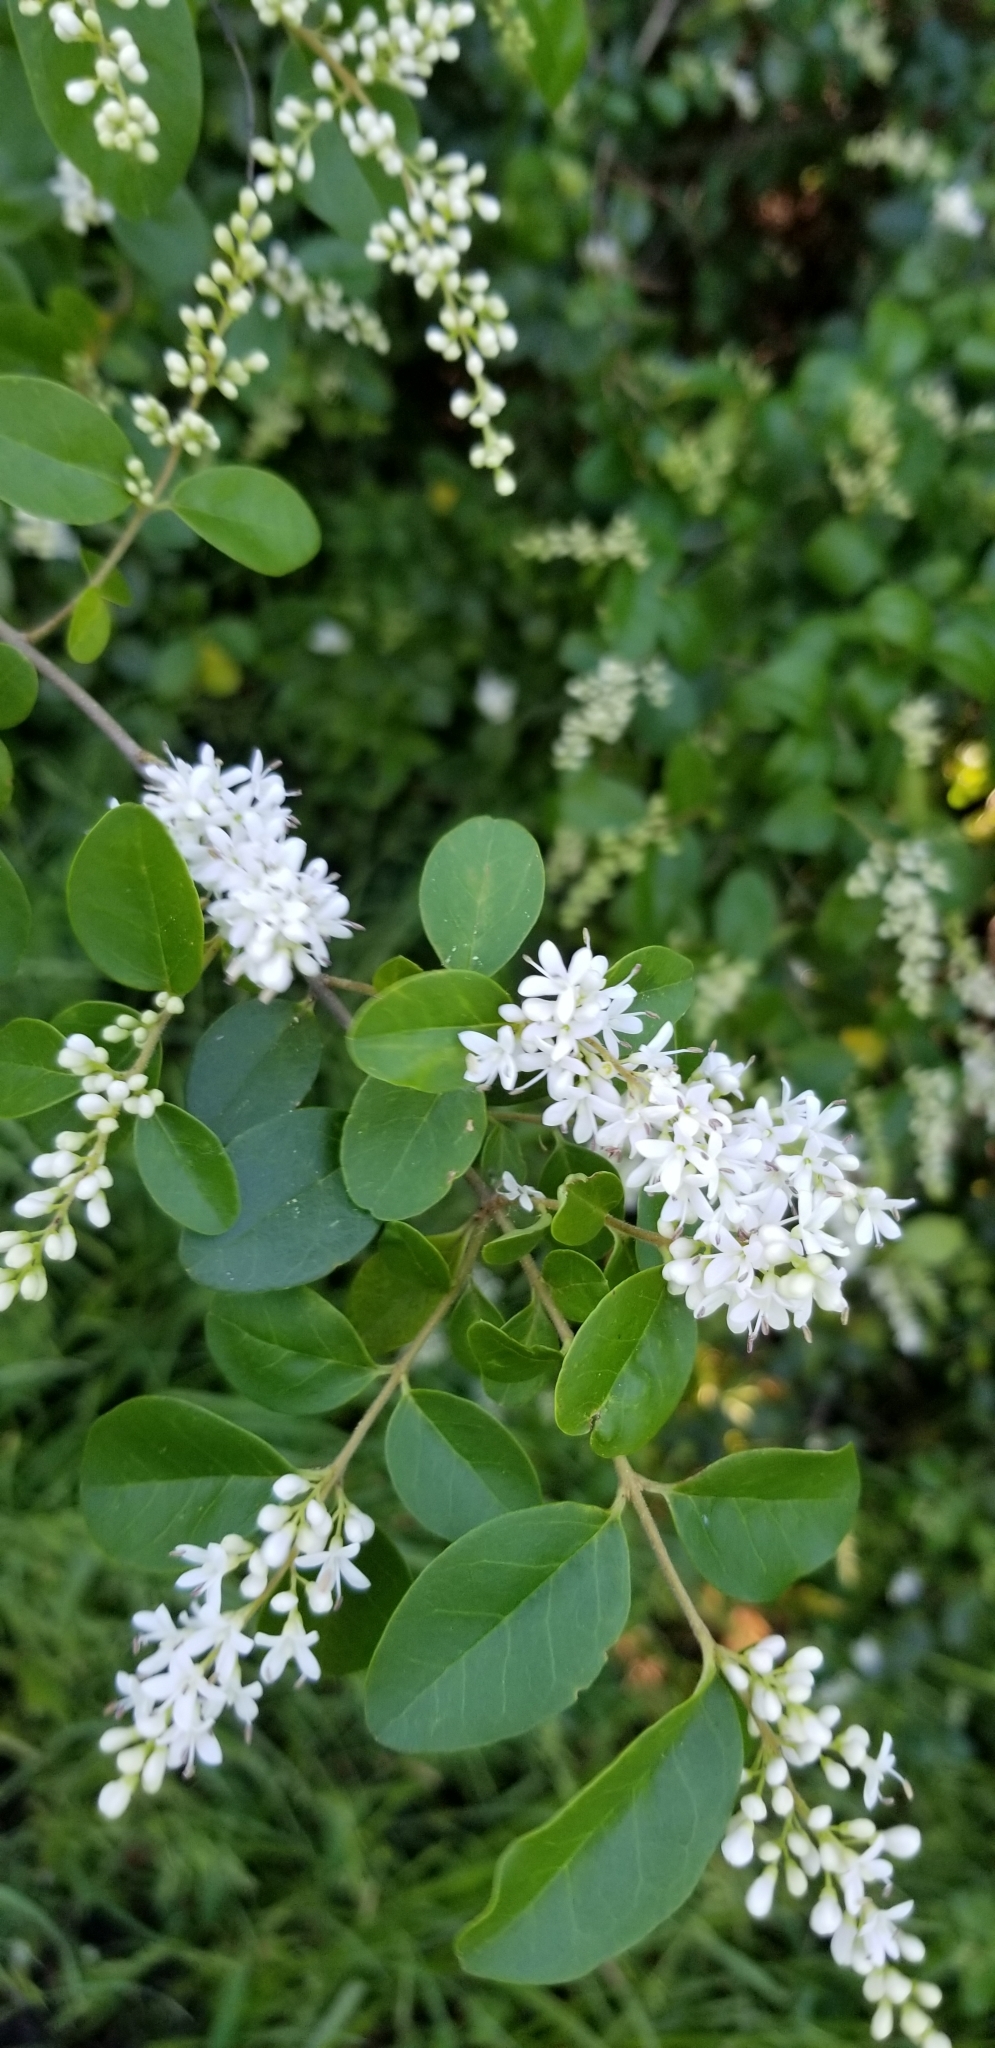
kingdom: Plantae
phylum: Tracheophyta
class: Magnoliopsida
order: Lamiales
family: Oleaceae
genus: Ligustrum
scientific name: Ligustrum sinense
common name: Chinese privet
